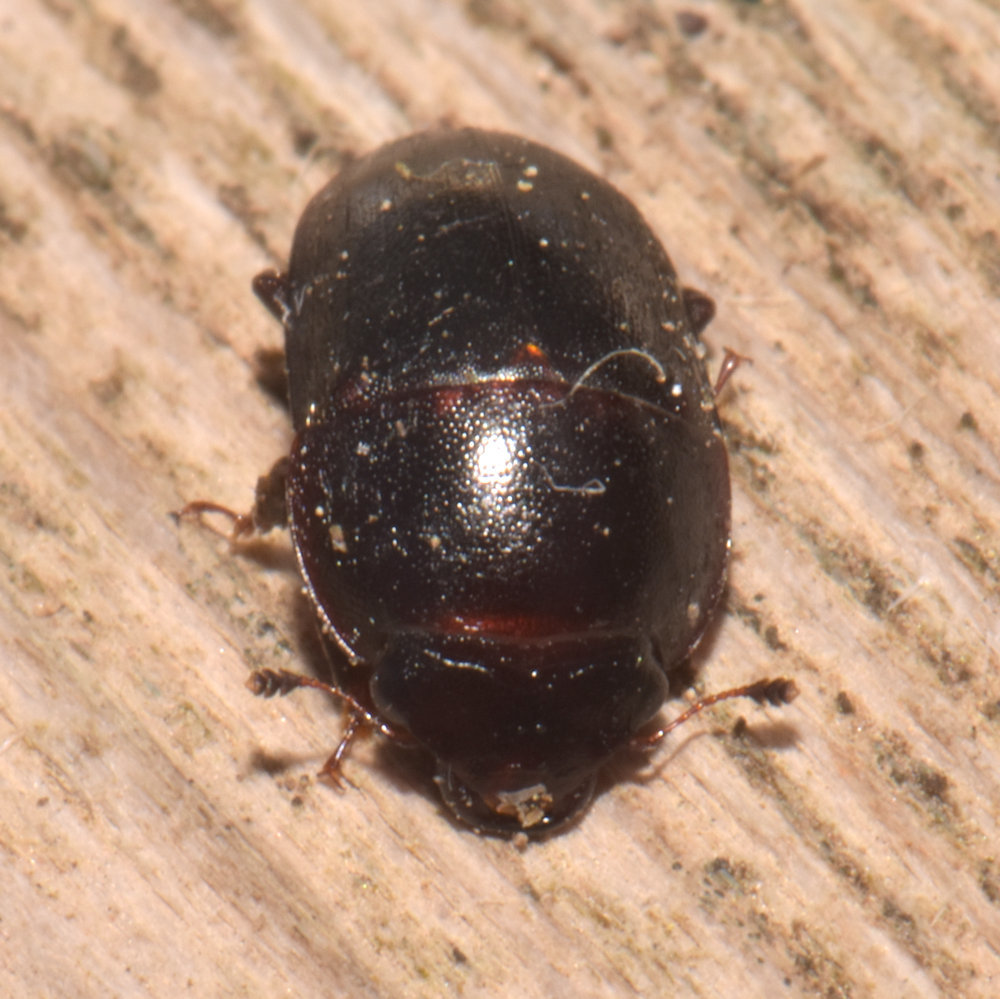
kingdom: Animalia
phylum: Arthropoda
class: Insecta
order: Coleoptera
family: Nitidulidae
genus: Cryptarcha
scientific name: Cryptarcha ampla
